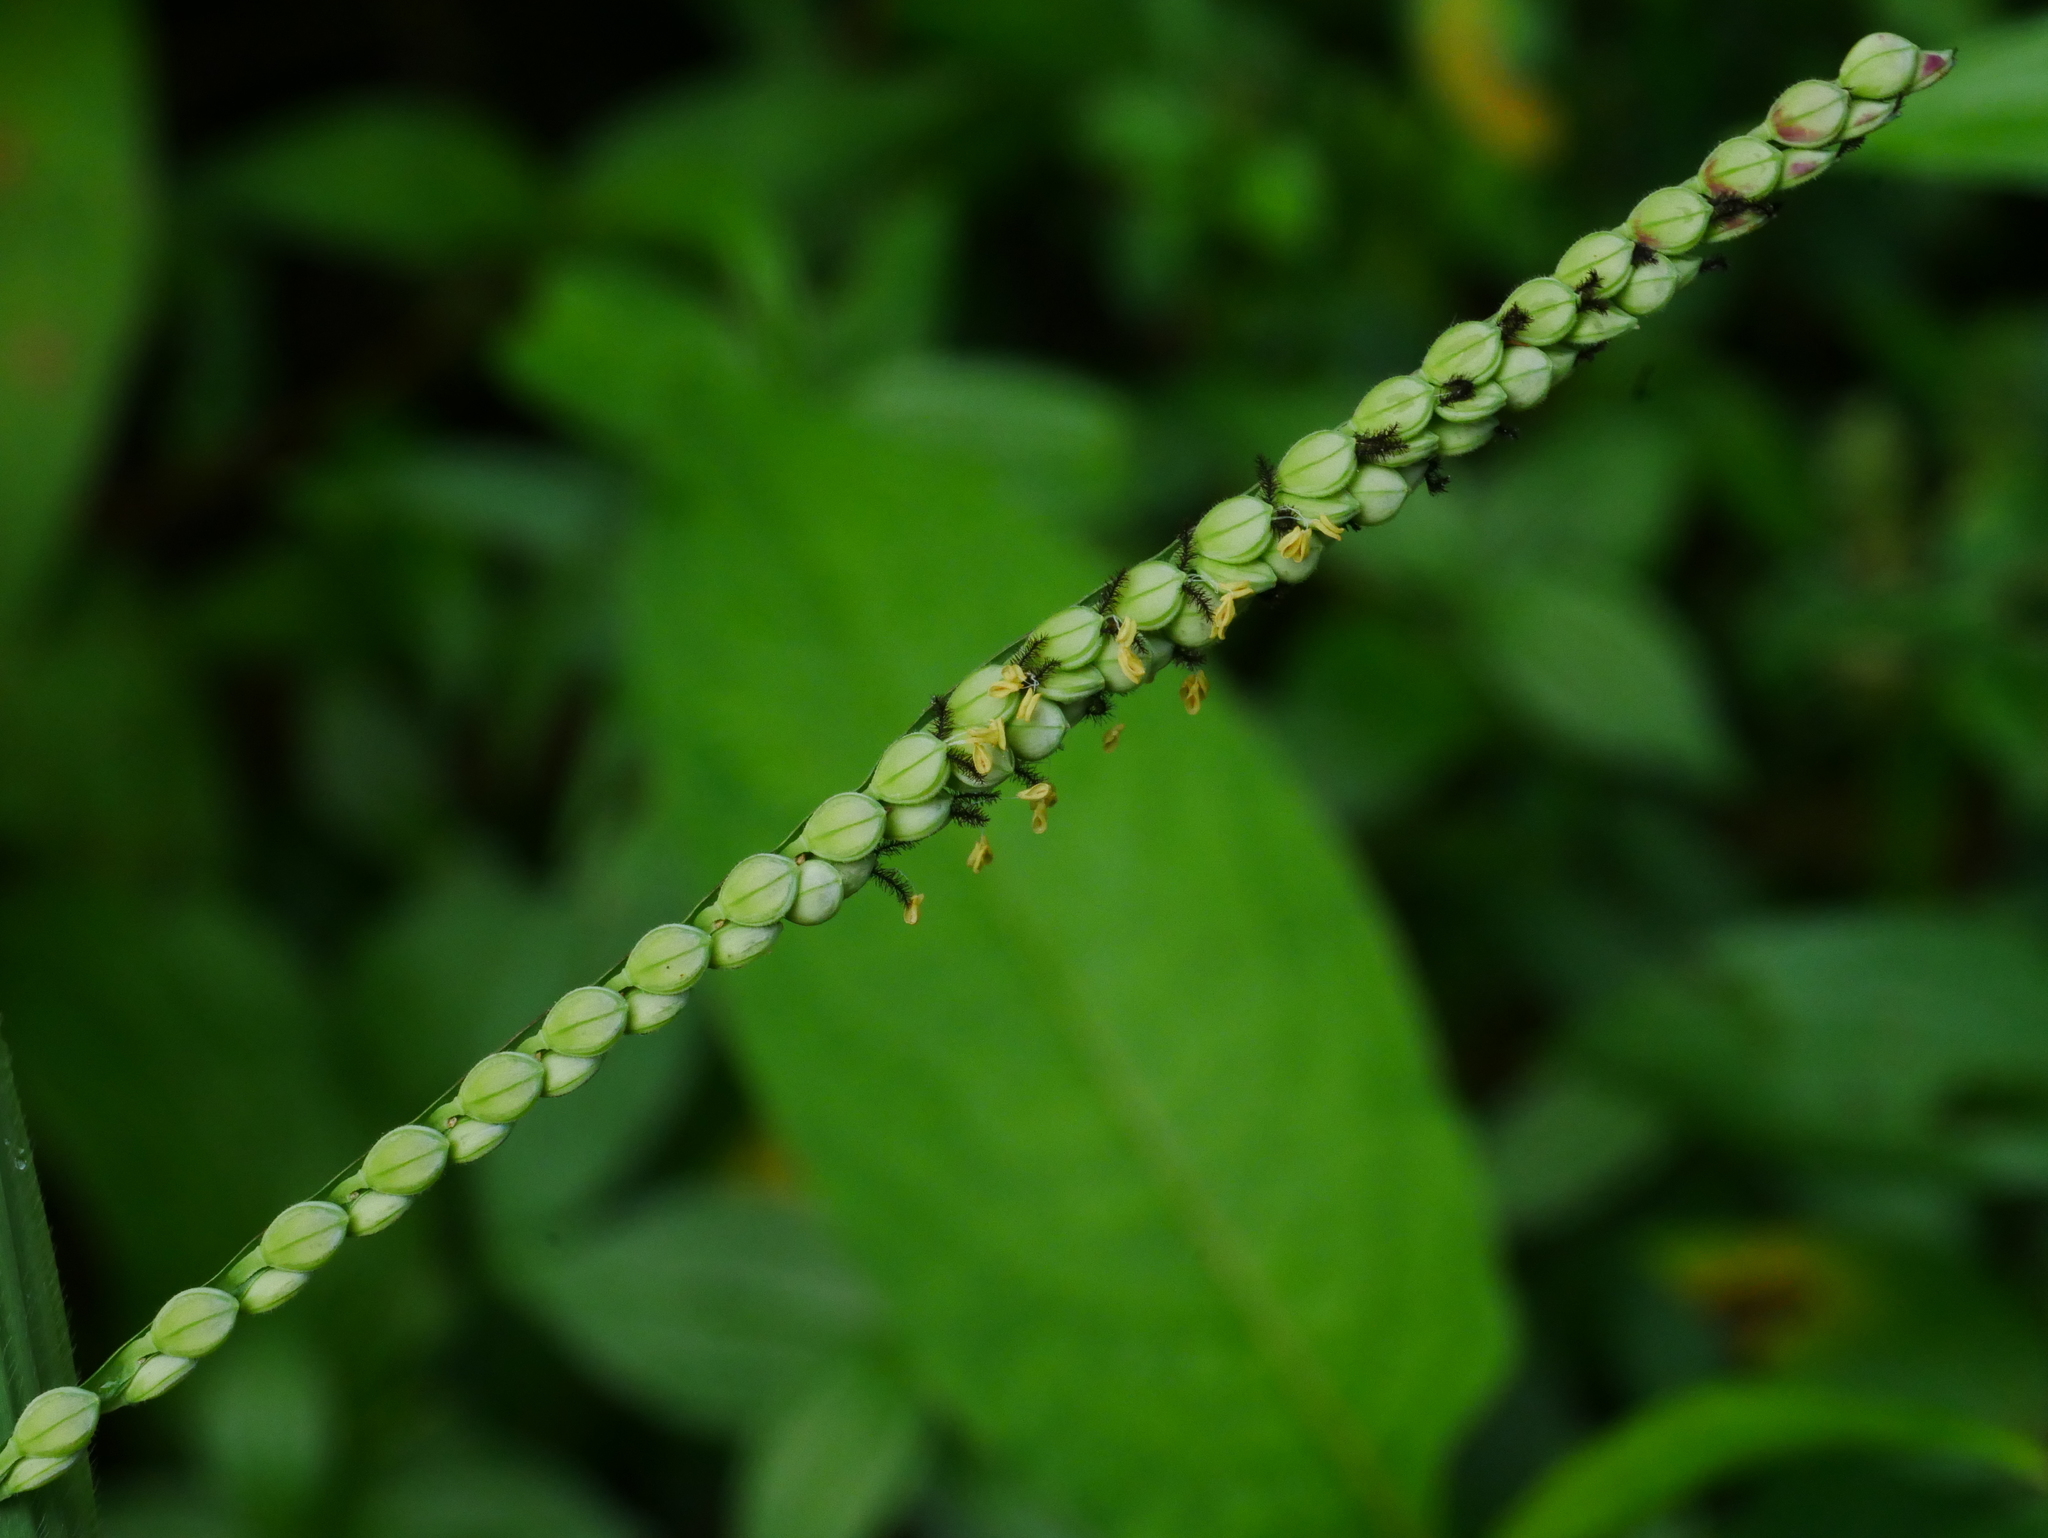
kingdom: Plantae
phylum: Tracheophyta
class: Liliopsida
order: Poales
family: Poaceae
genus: Paspalum
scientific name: Paspalum thunbergii
